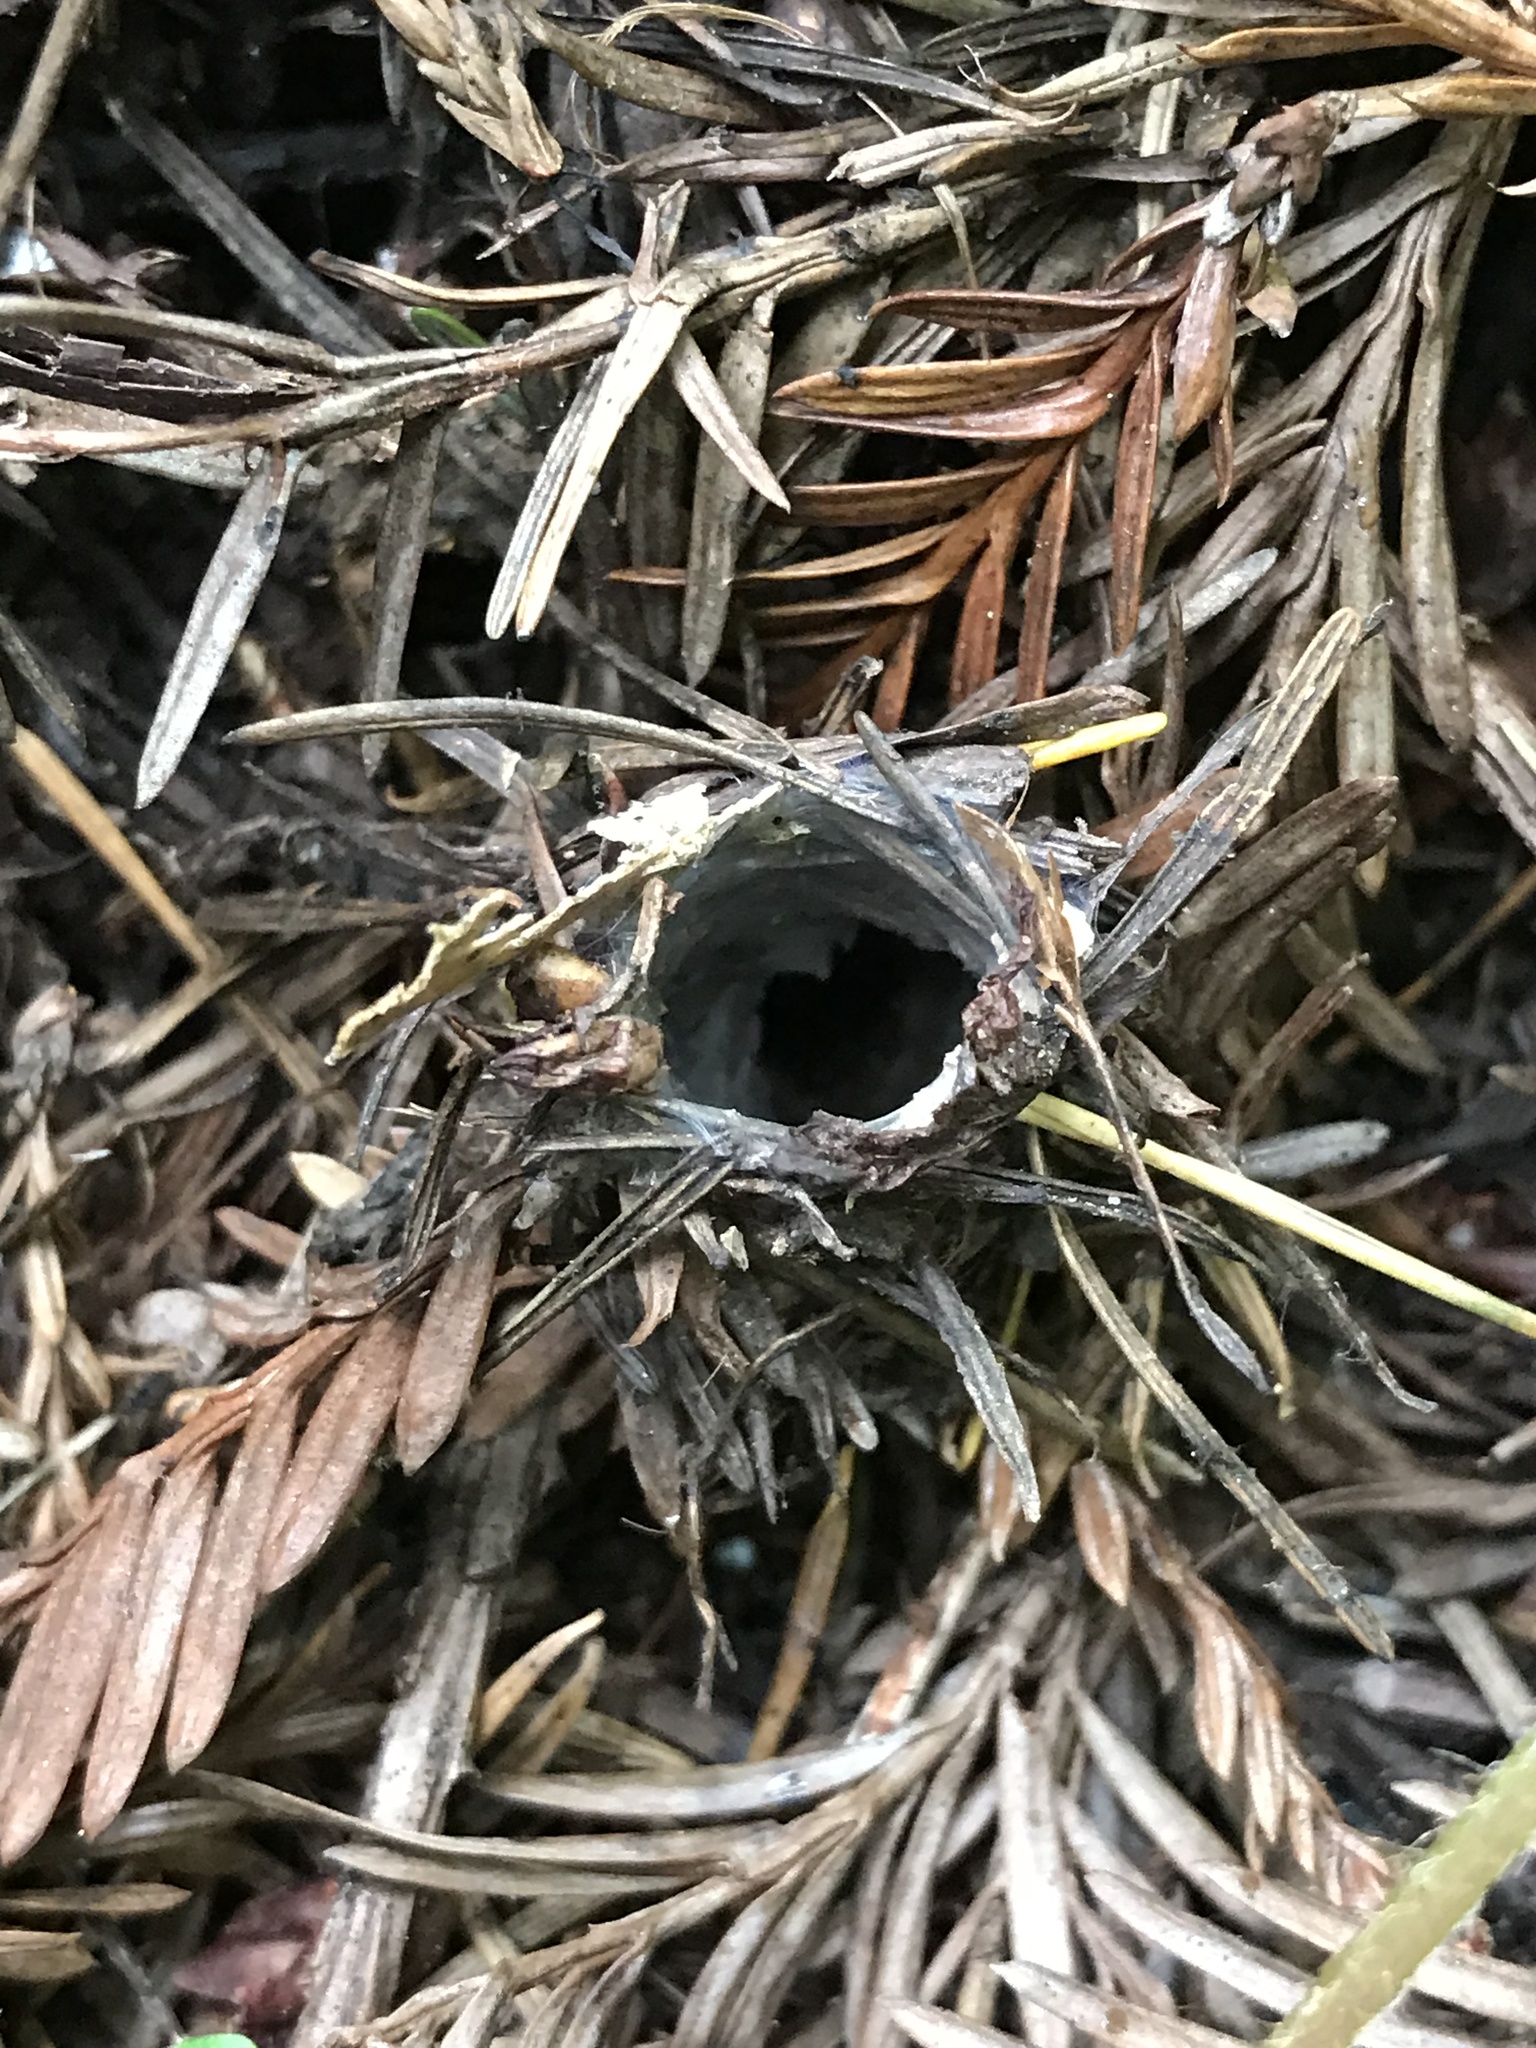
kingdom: Animalia
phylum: Arthropoda
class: Arachnida
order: Araneae
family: Antrodiaetidae
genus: Atypoides
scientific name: Atypoides riversi
